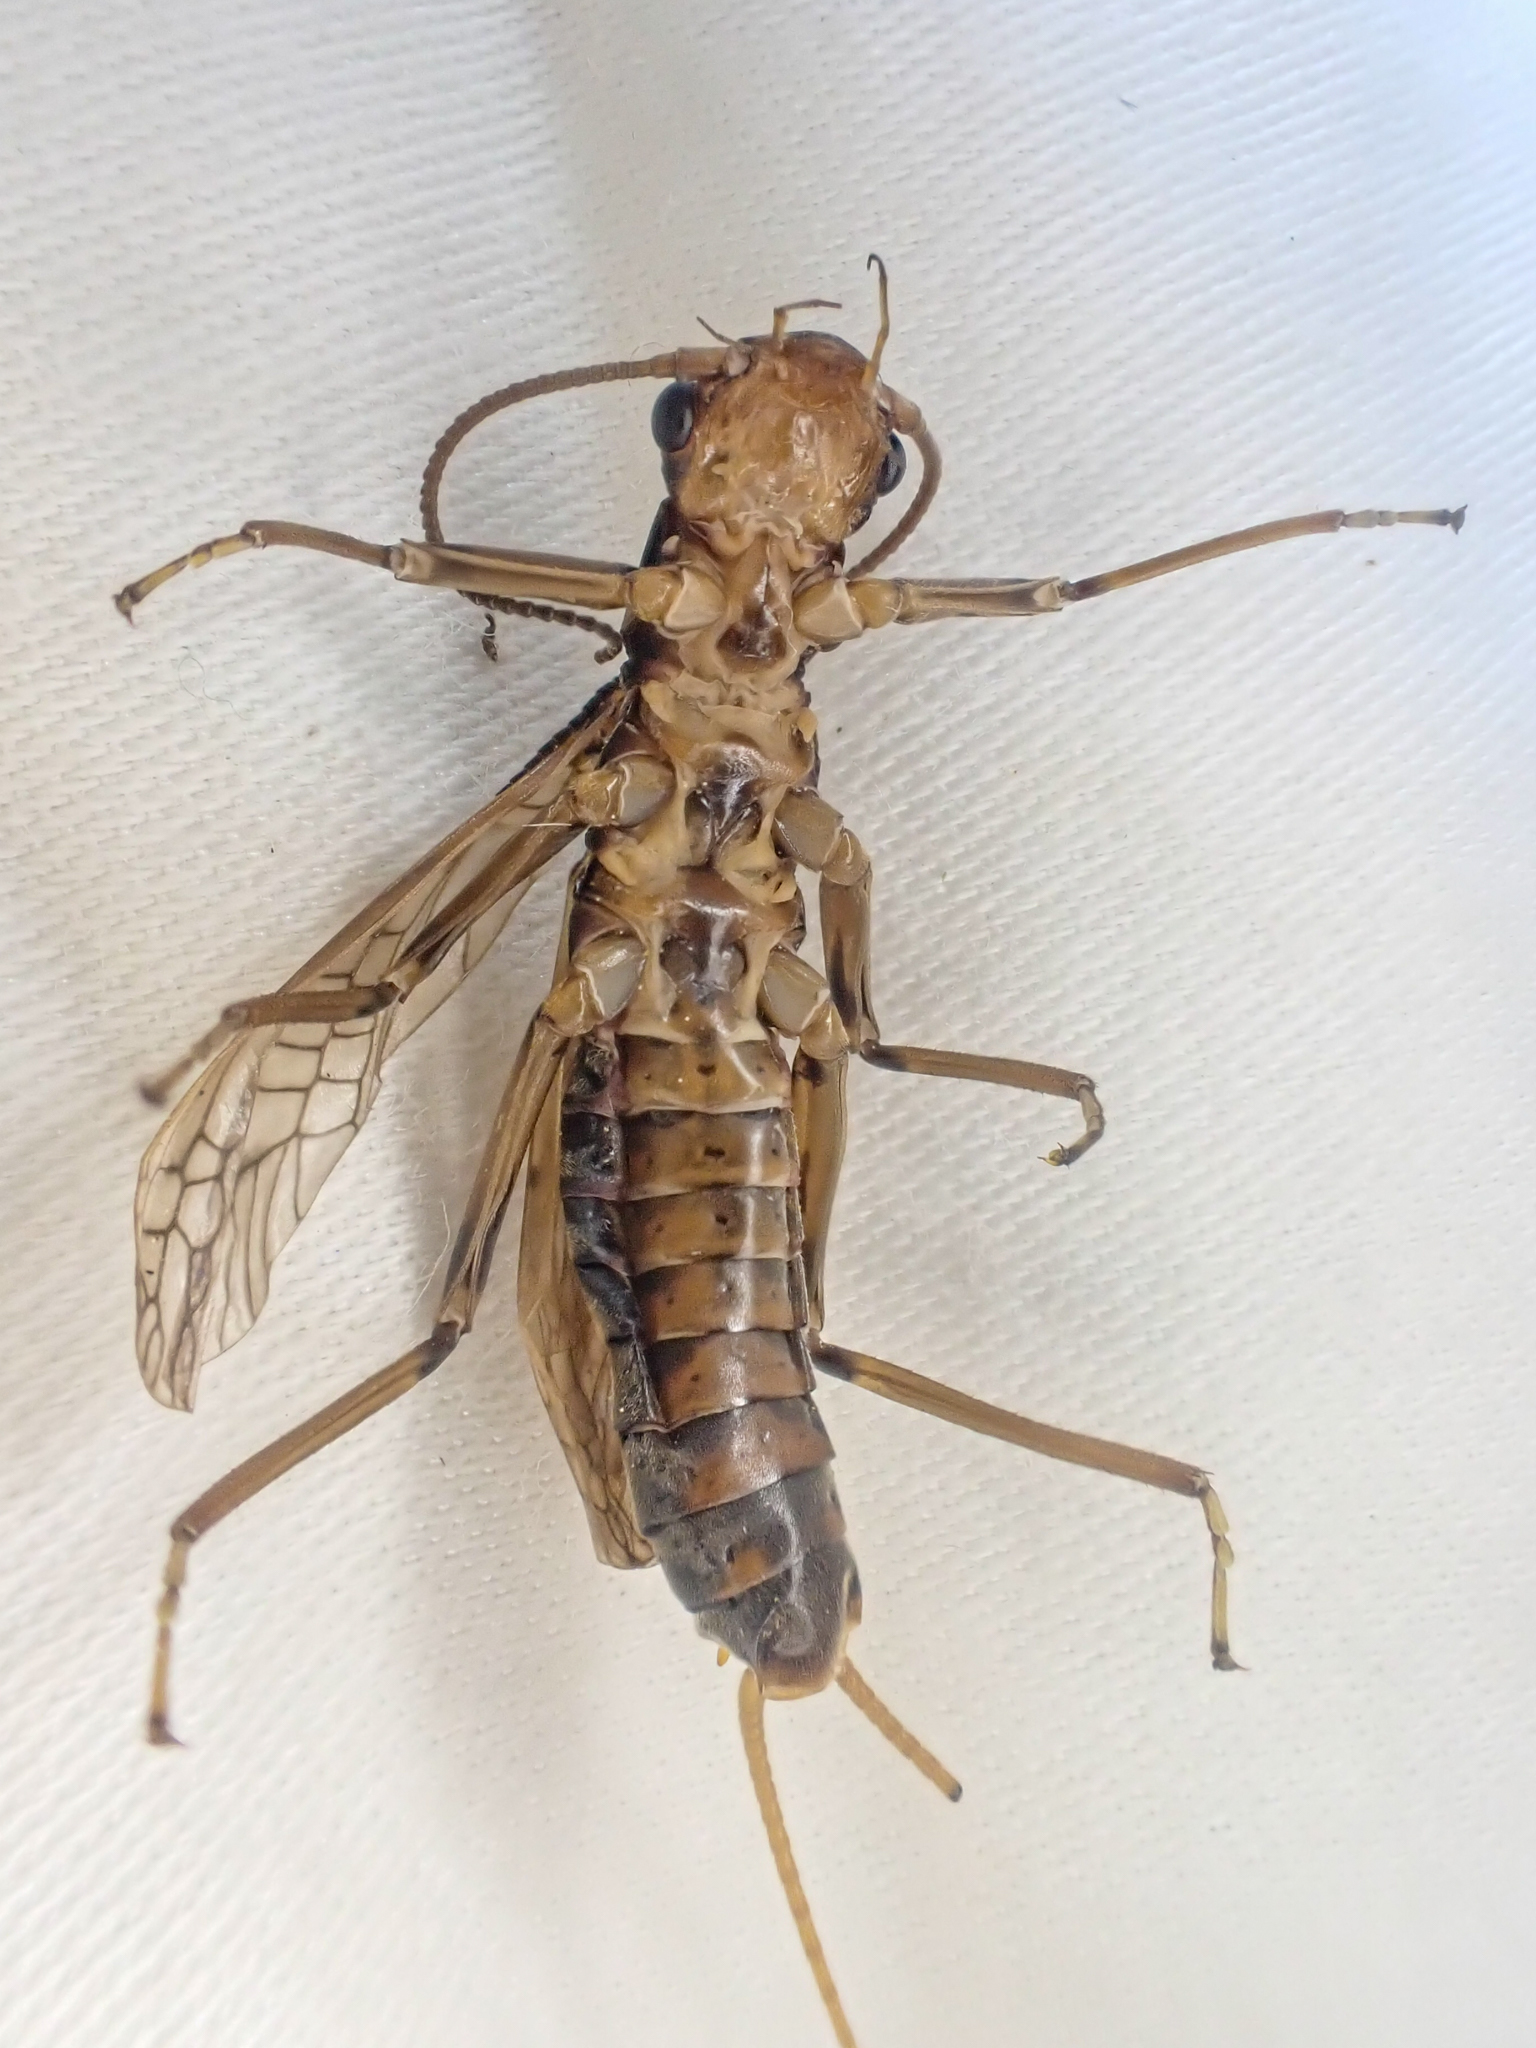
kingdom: Animalia
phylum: Arthropoda
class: Insecta
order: Plecoptera
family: Perlodidae
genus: Megarcys
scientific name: Megarcys subtruncata
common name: Truncate springfly
